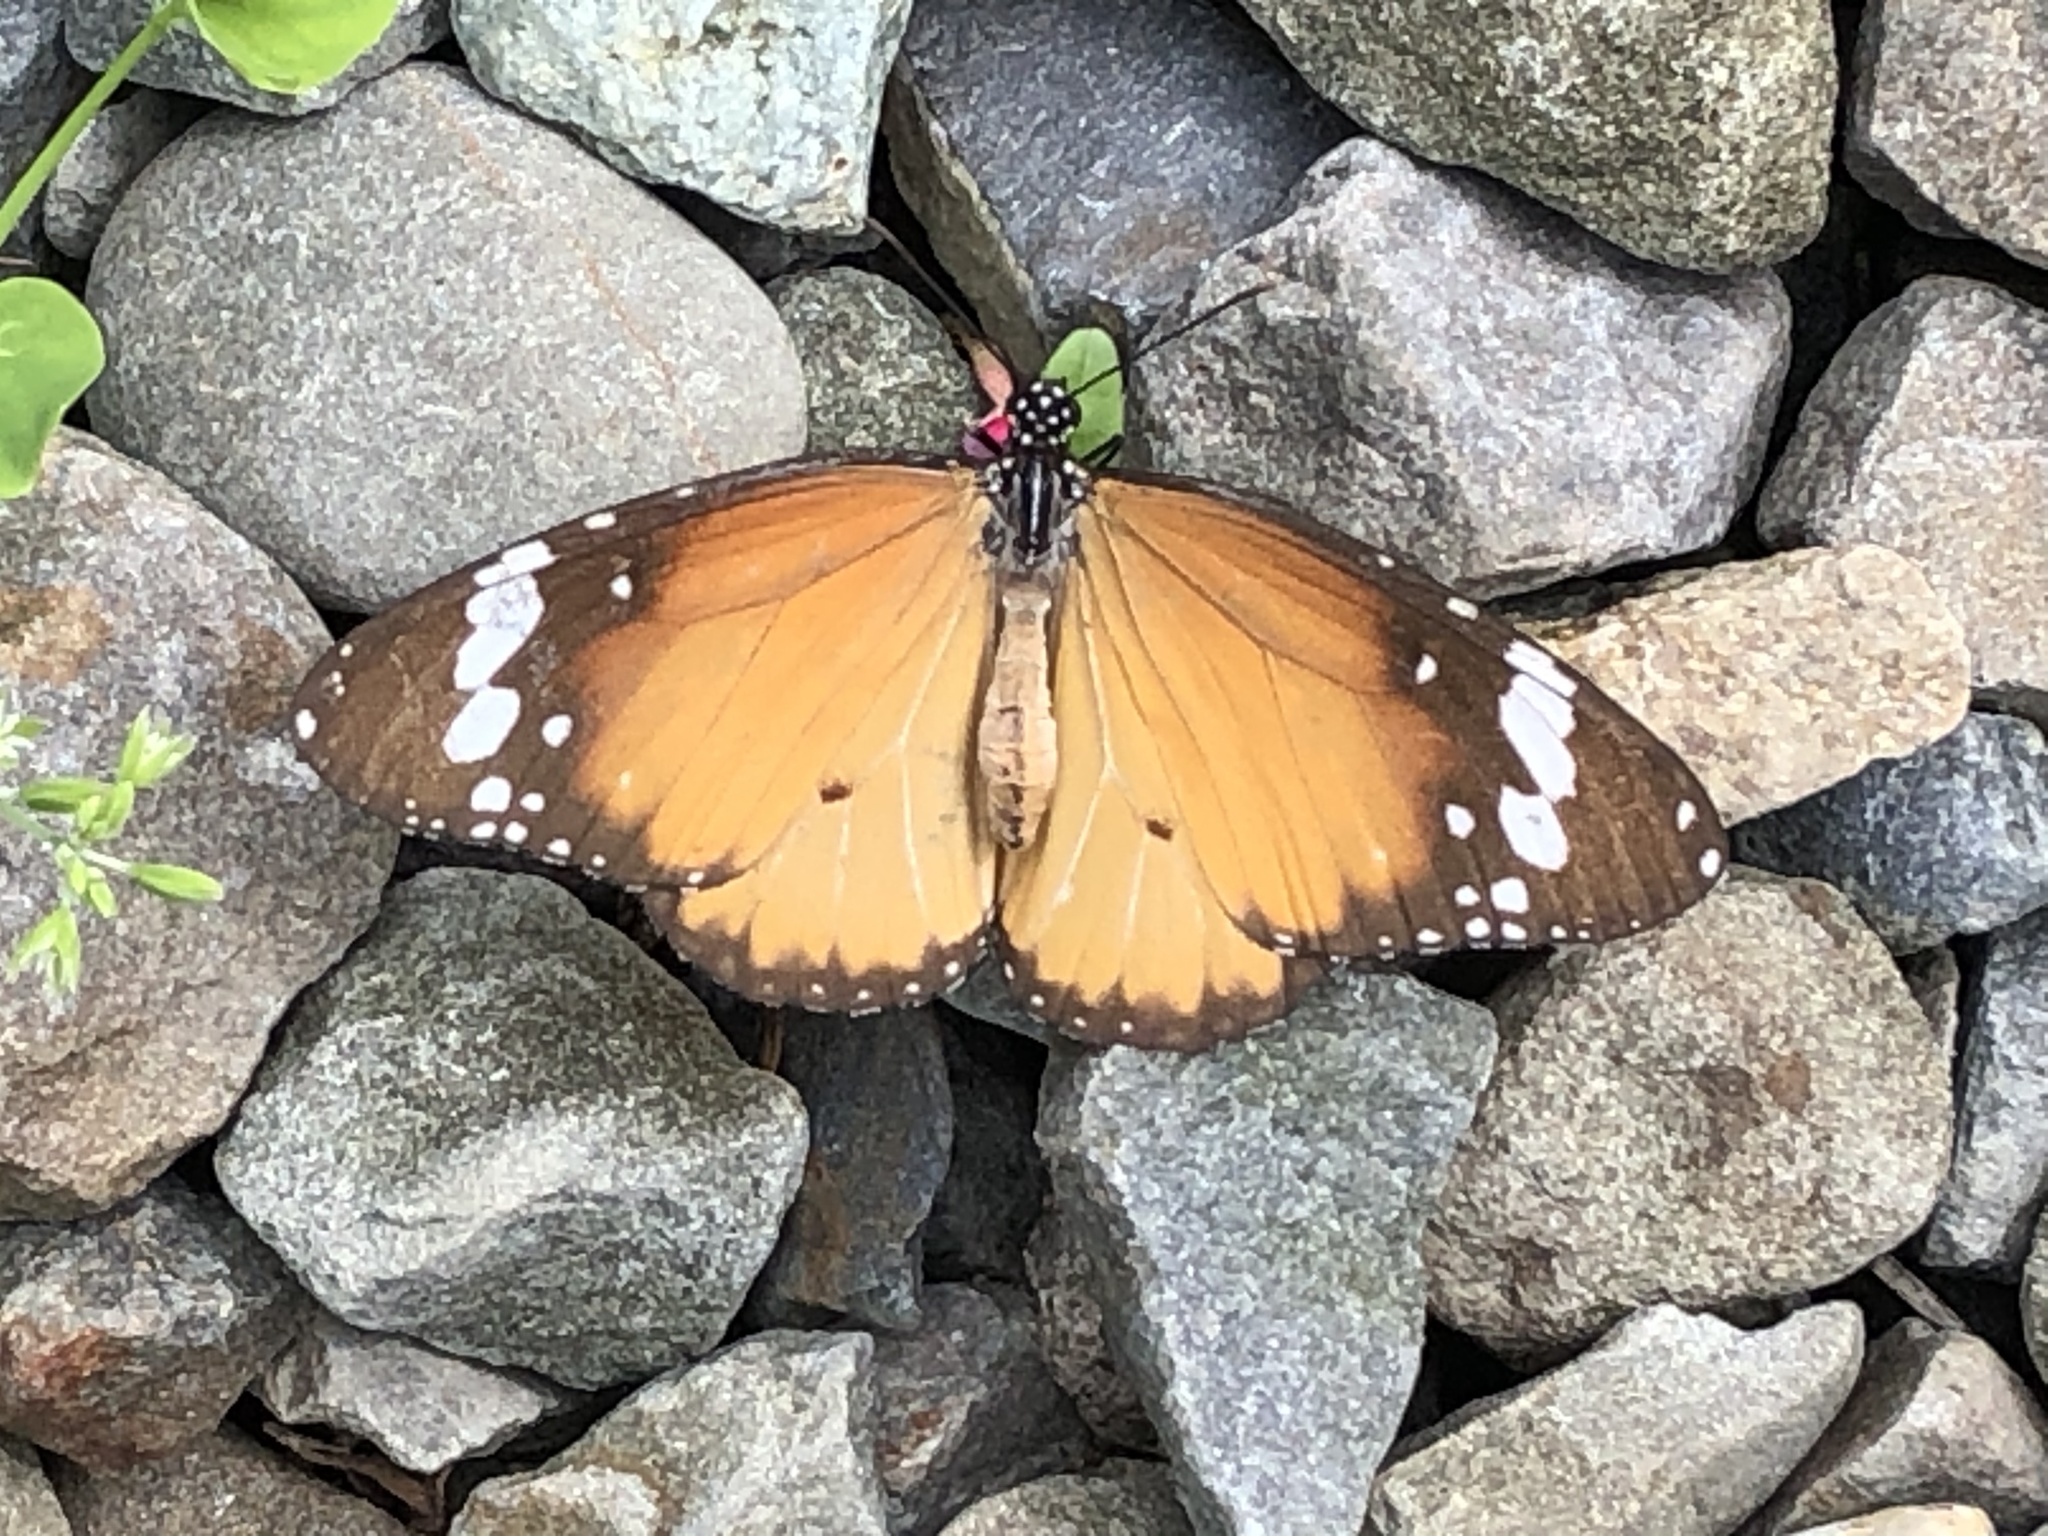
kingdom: Animalia
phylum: Arthropoda
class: Insecta
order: Lepidoptera
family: Nymphalidae
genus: Danaus
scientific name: Danaus chrysippus
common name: Plain tiger
